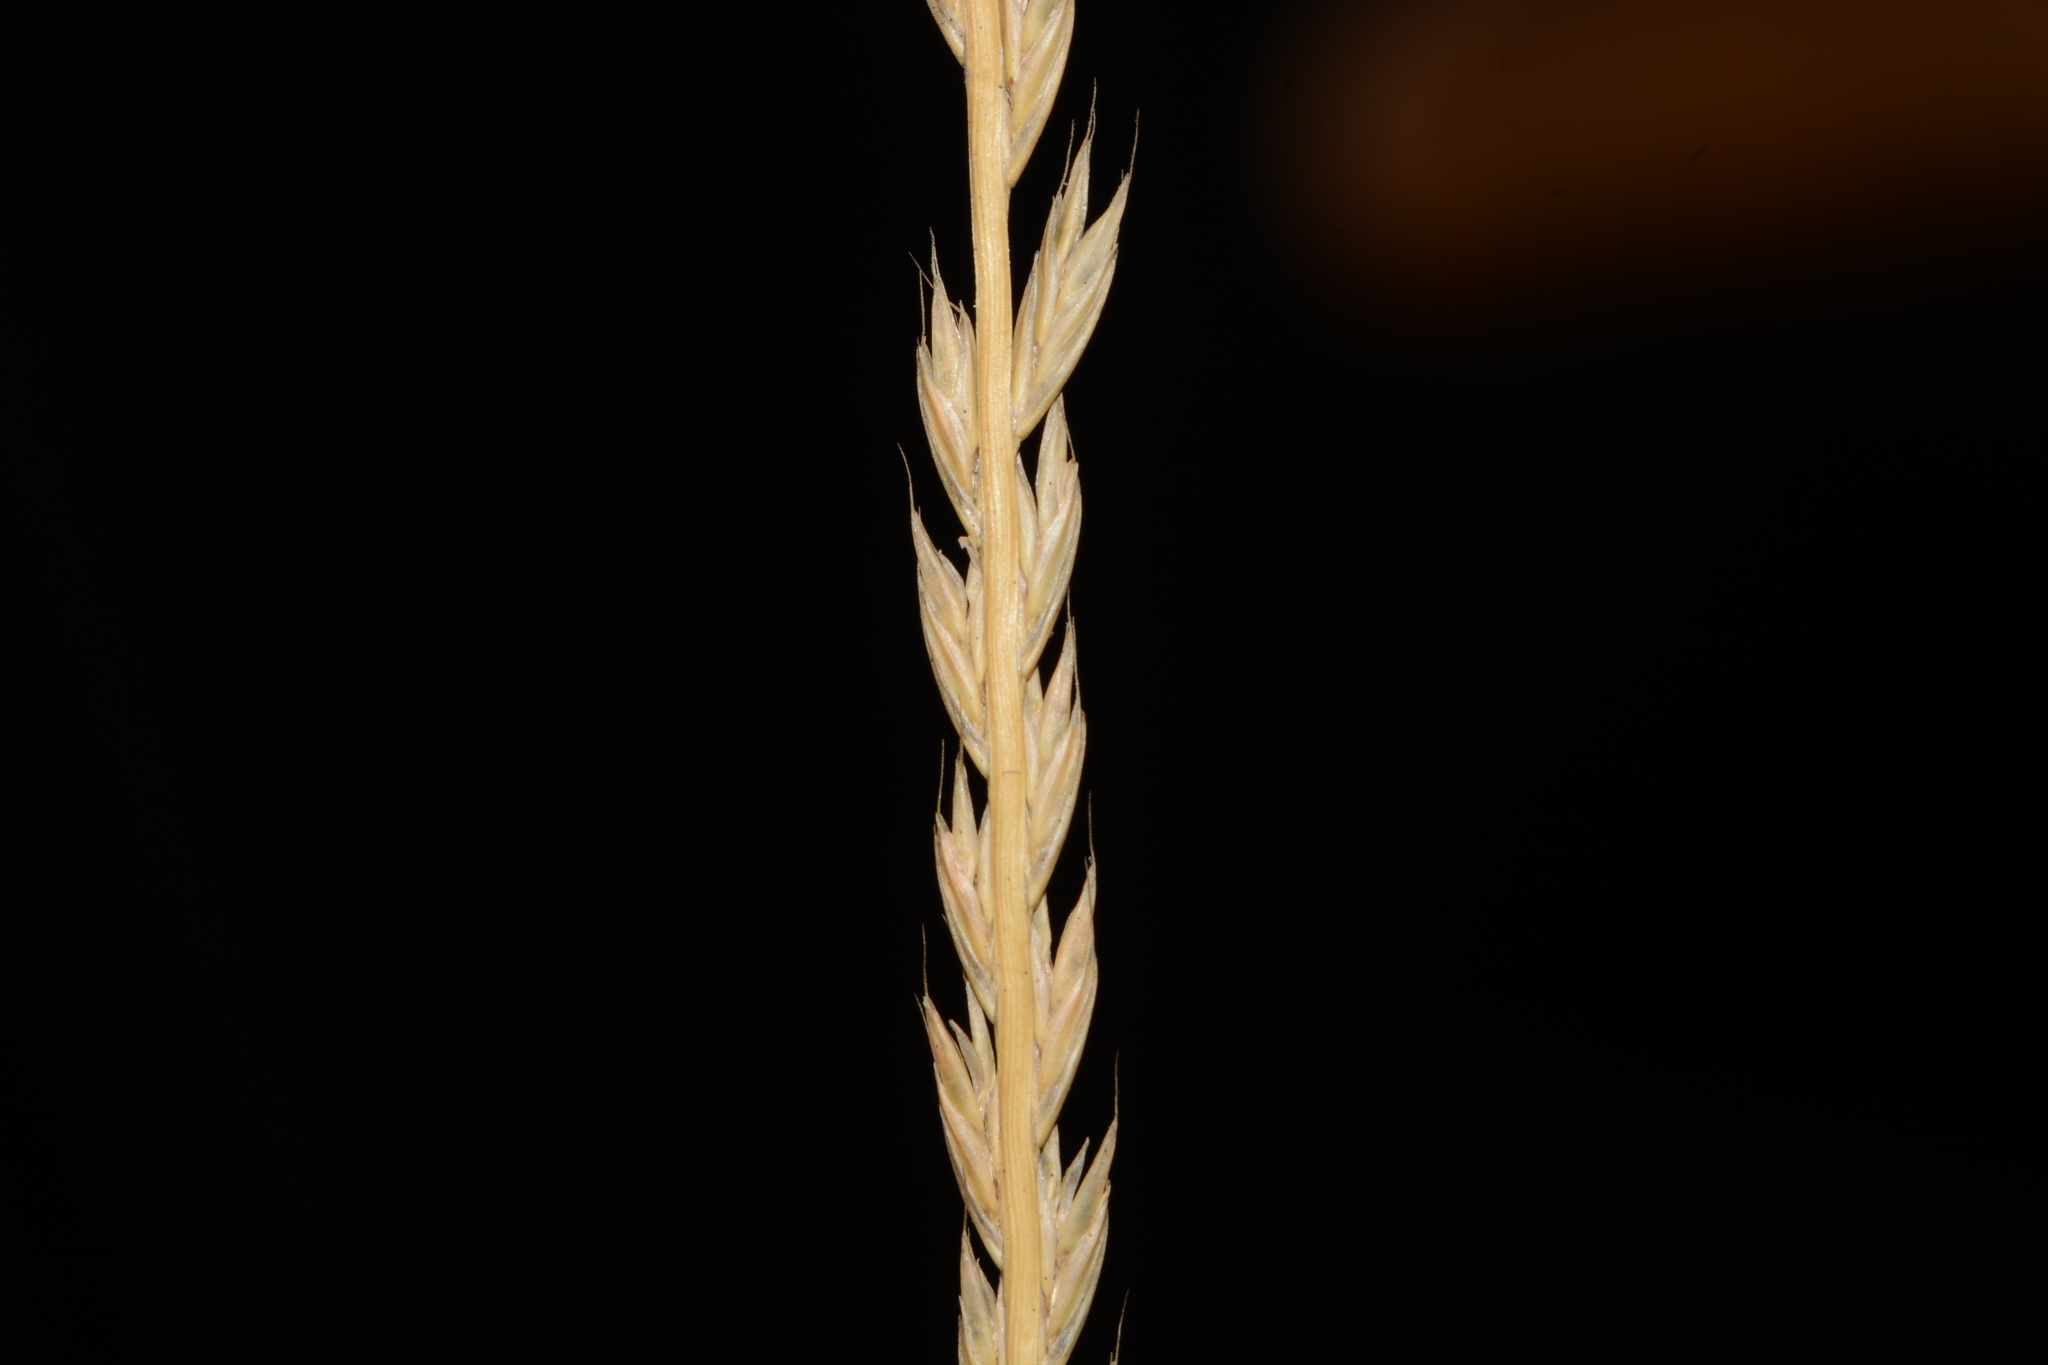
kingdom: Plantae
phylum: Tracheophyta
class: Liliopsida
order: Poales
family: Poaceae
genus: Tripogon
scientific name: Tripogon jacquemontii
